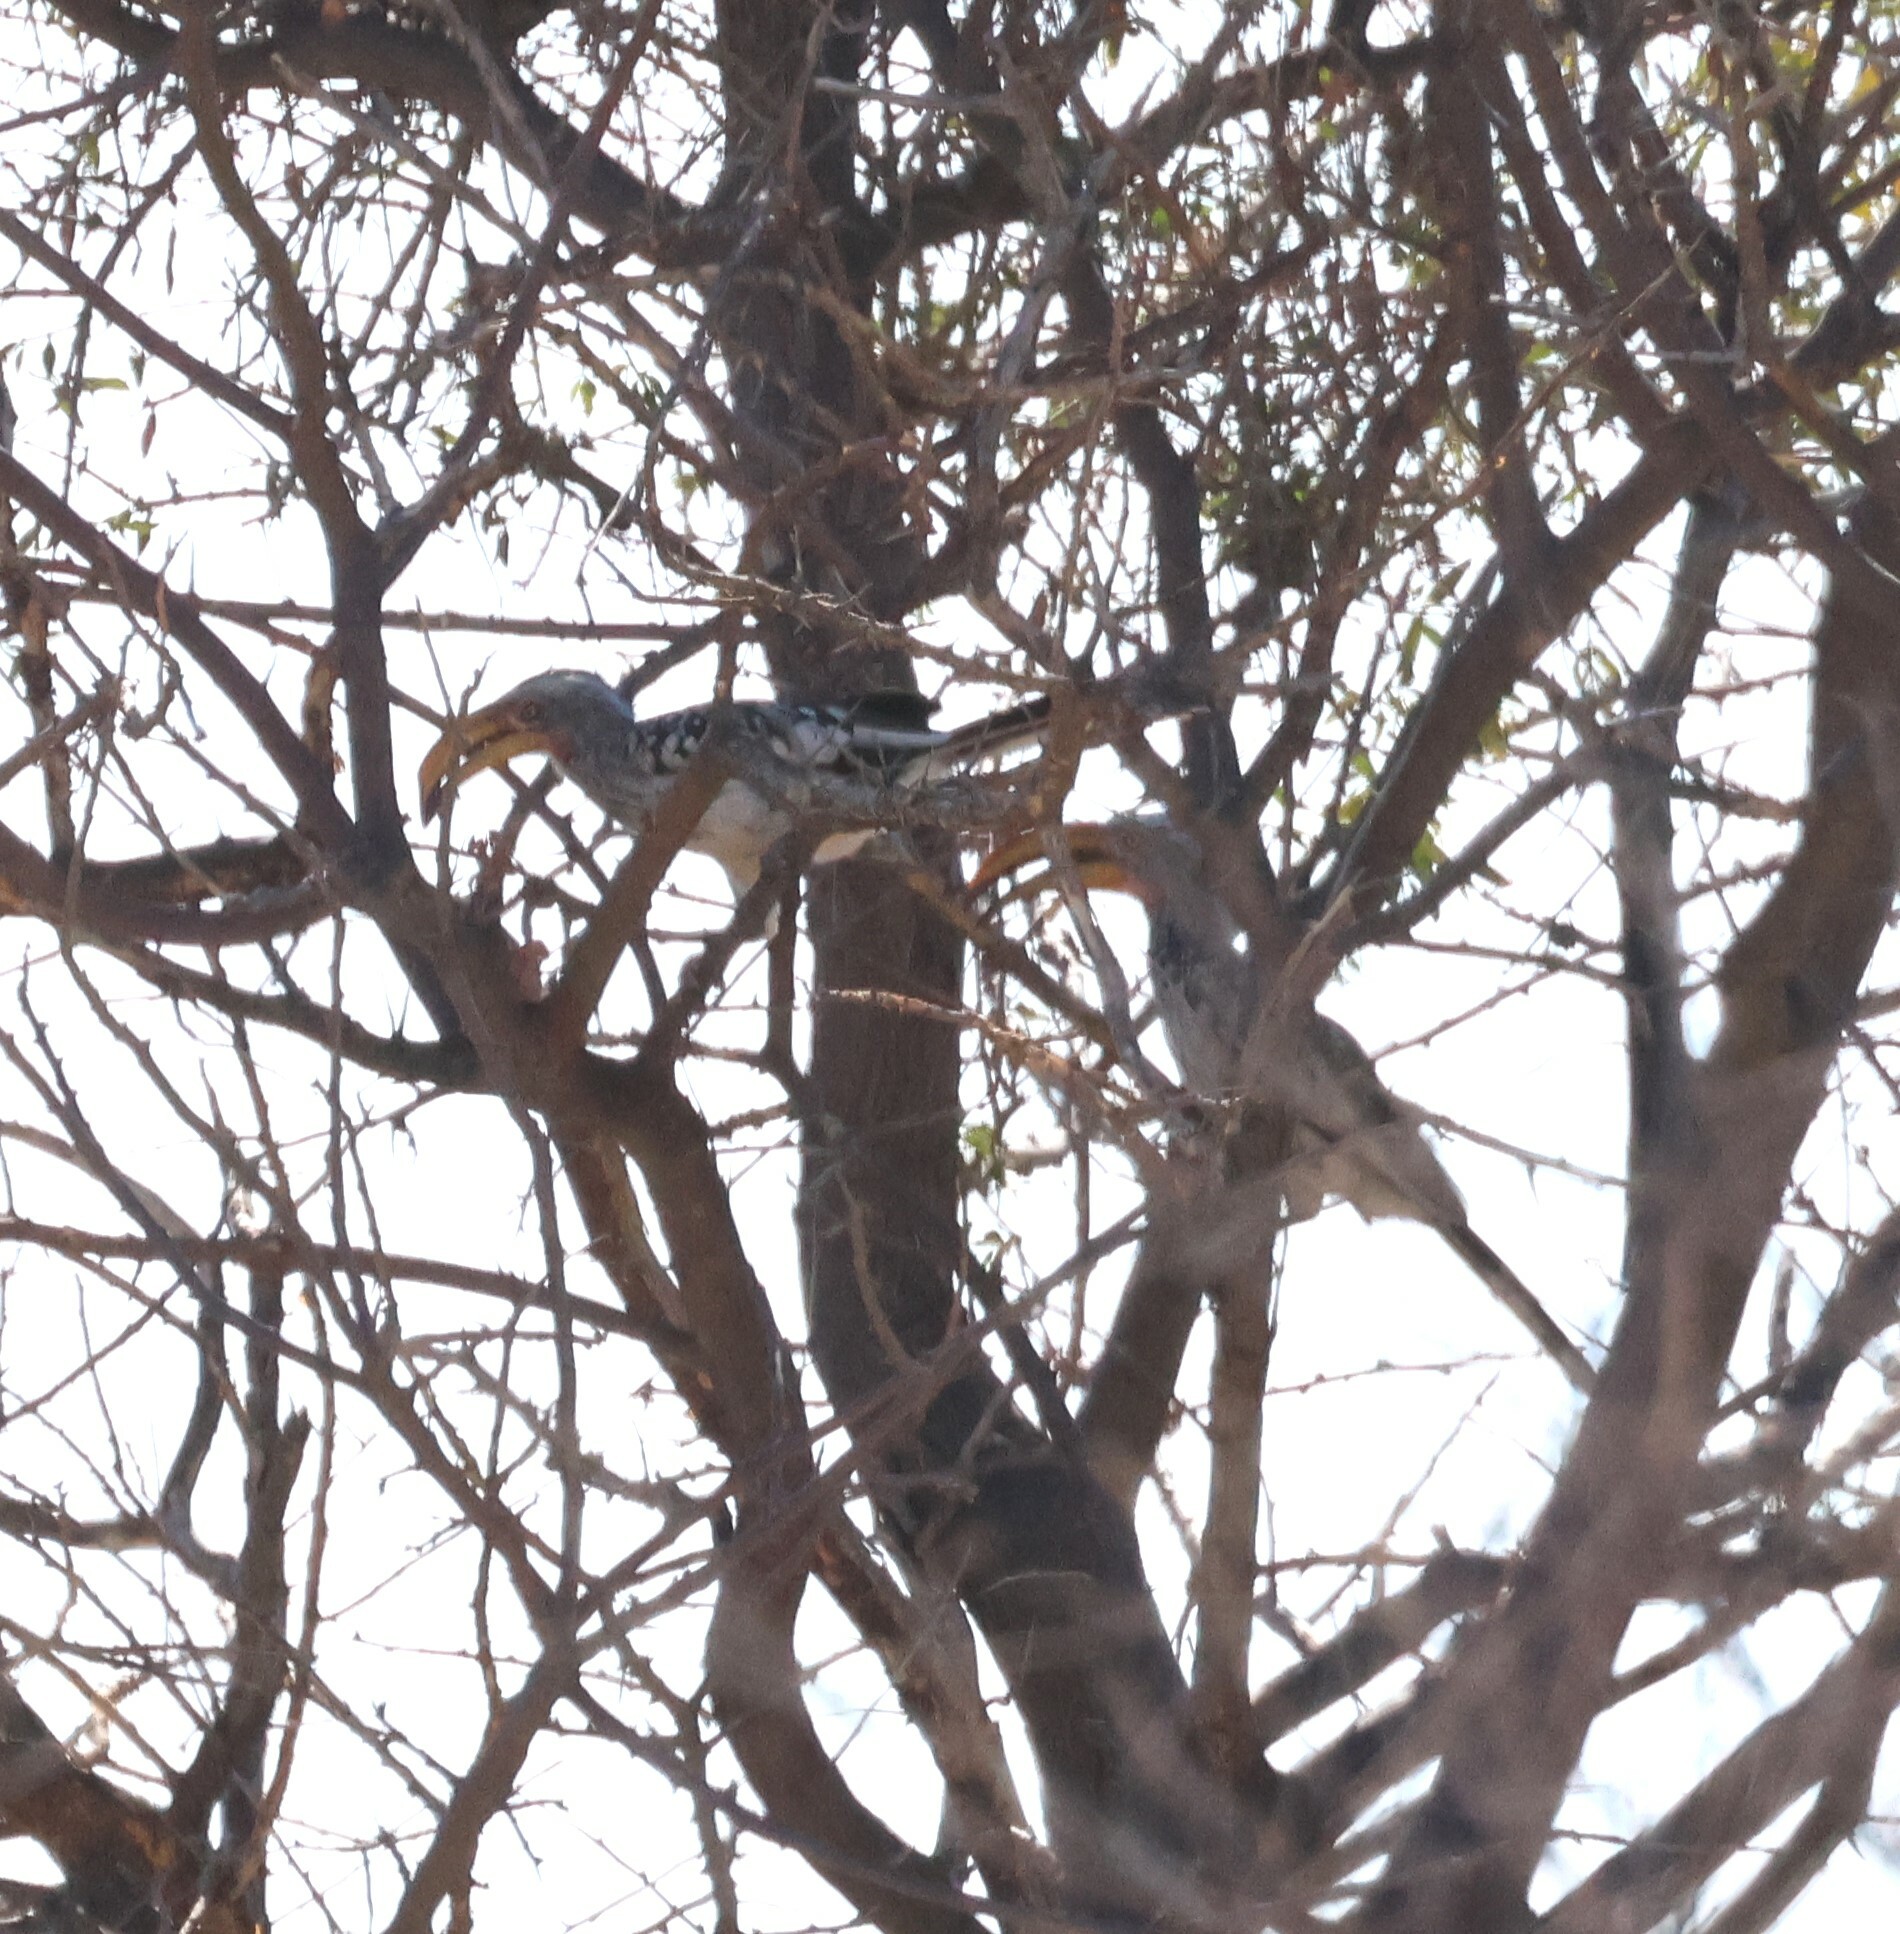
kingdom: Animalia
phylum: Chordata
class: Aves
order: Bucerotiformes
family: Bucerotidae
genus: Tockus
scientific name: Tockus leucomelas
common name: Southern yellow-billed hornbill
